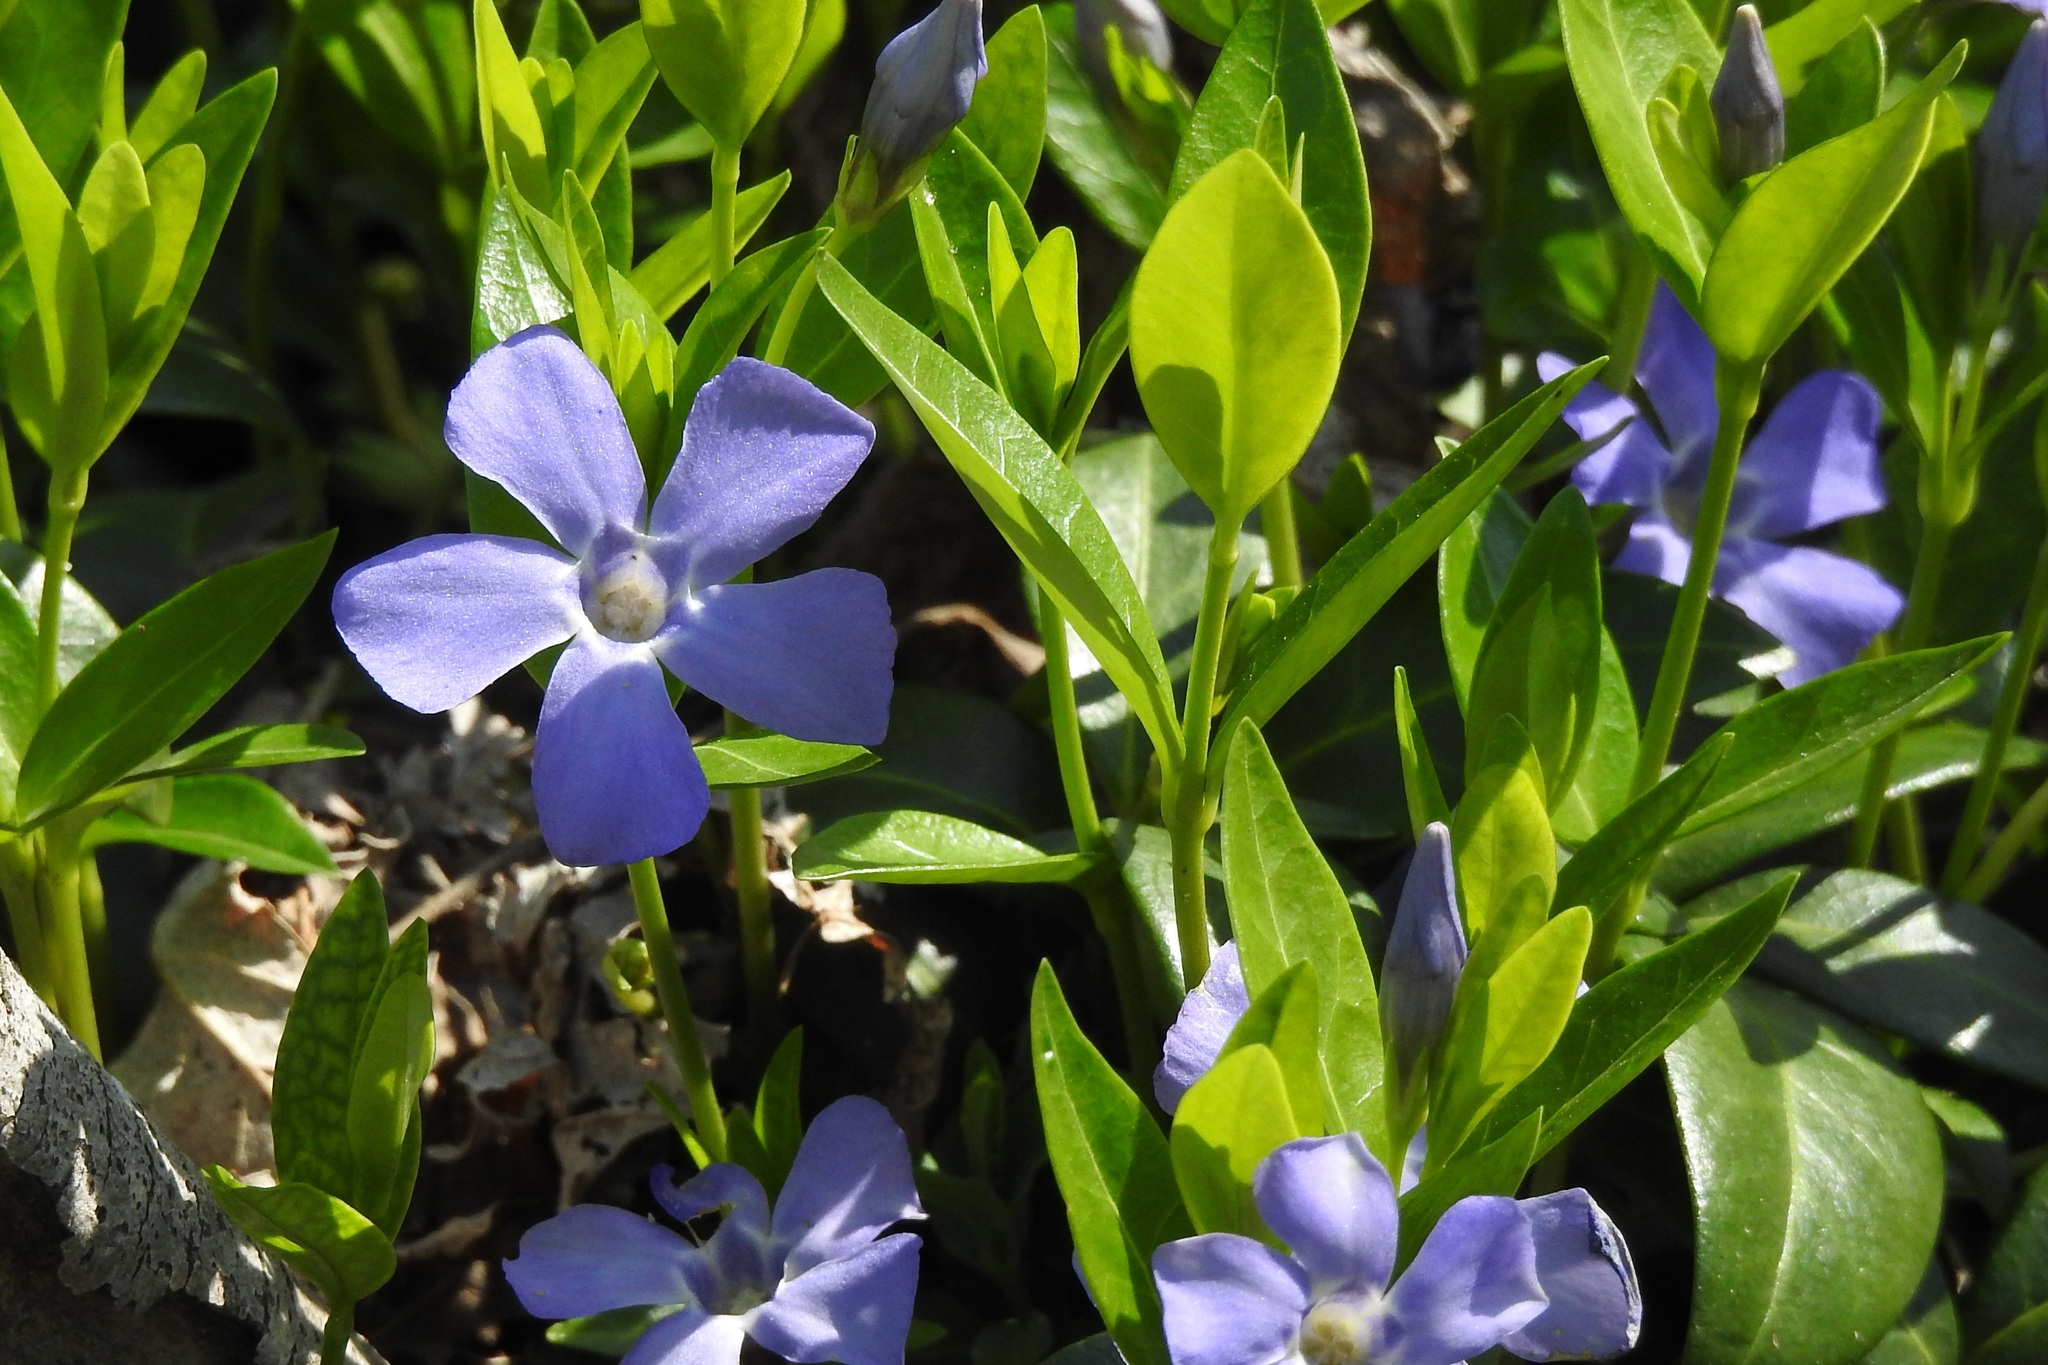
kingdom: Plantae
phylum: Tracheophyta
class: Magnoliopsida
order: Gentianales
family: Apocynaceae
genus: Vinca
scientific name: Vinca minor
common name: Lesser periwinkle
